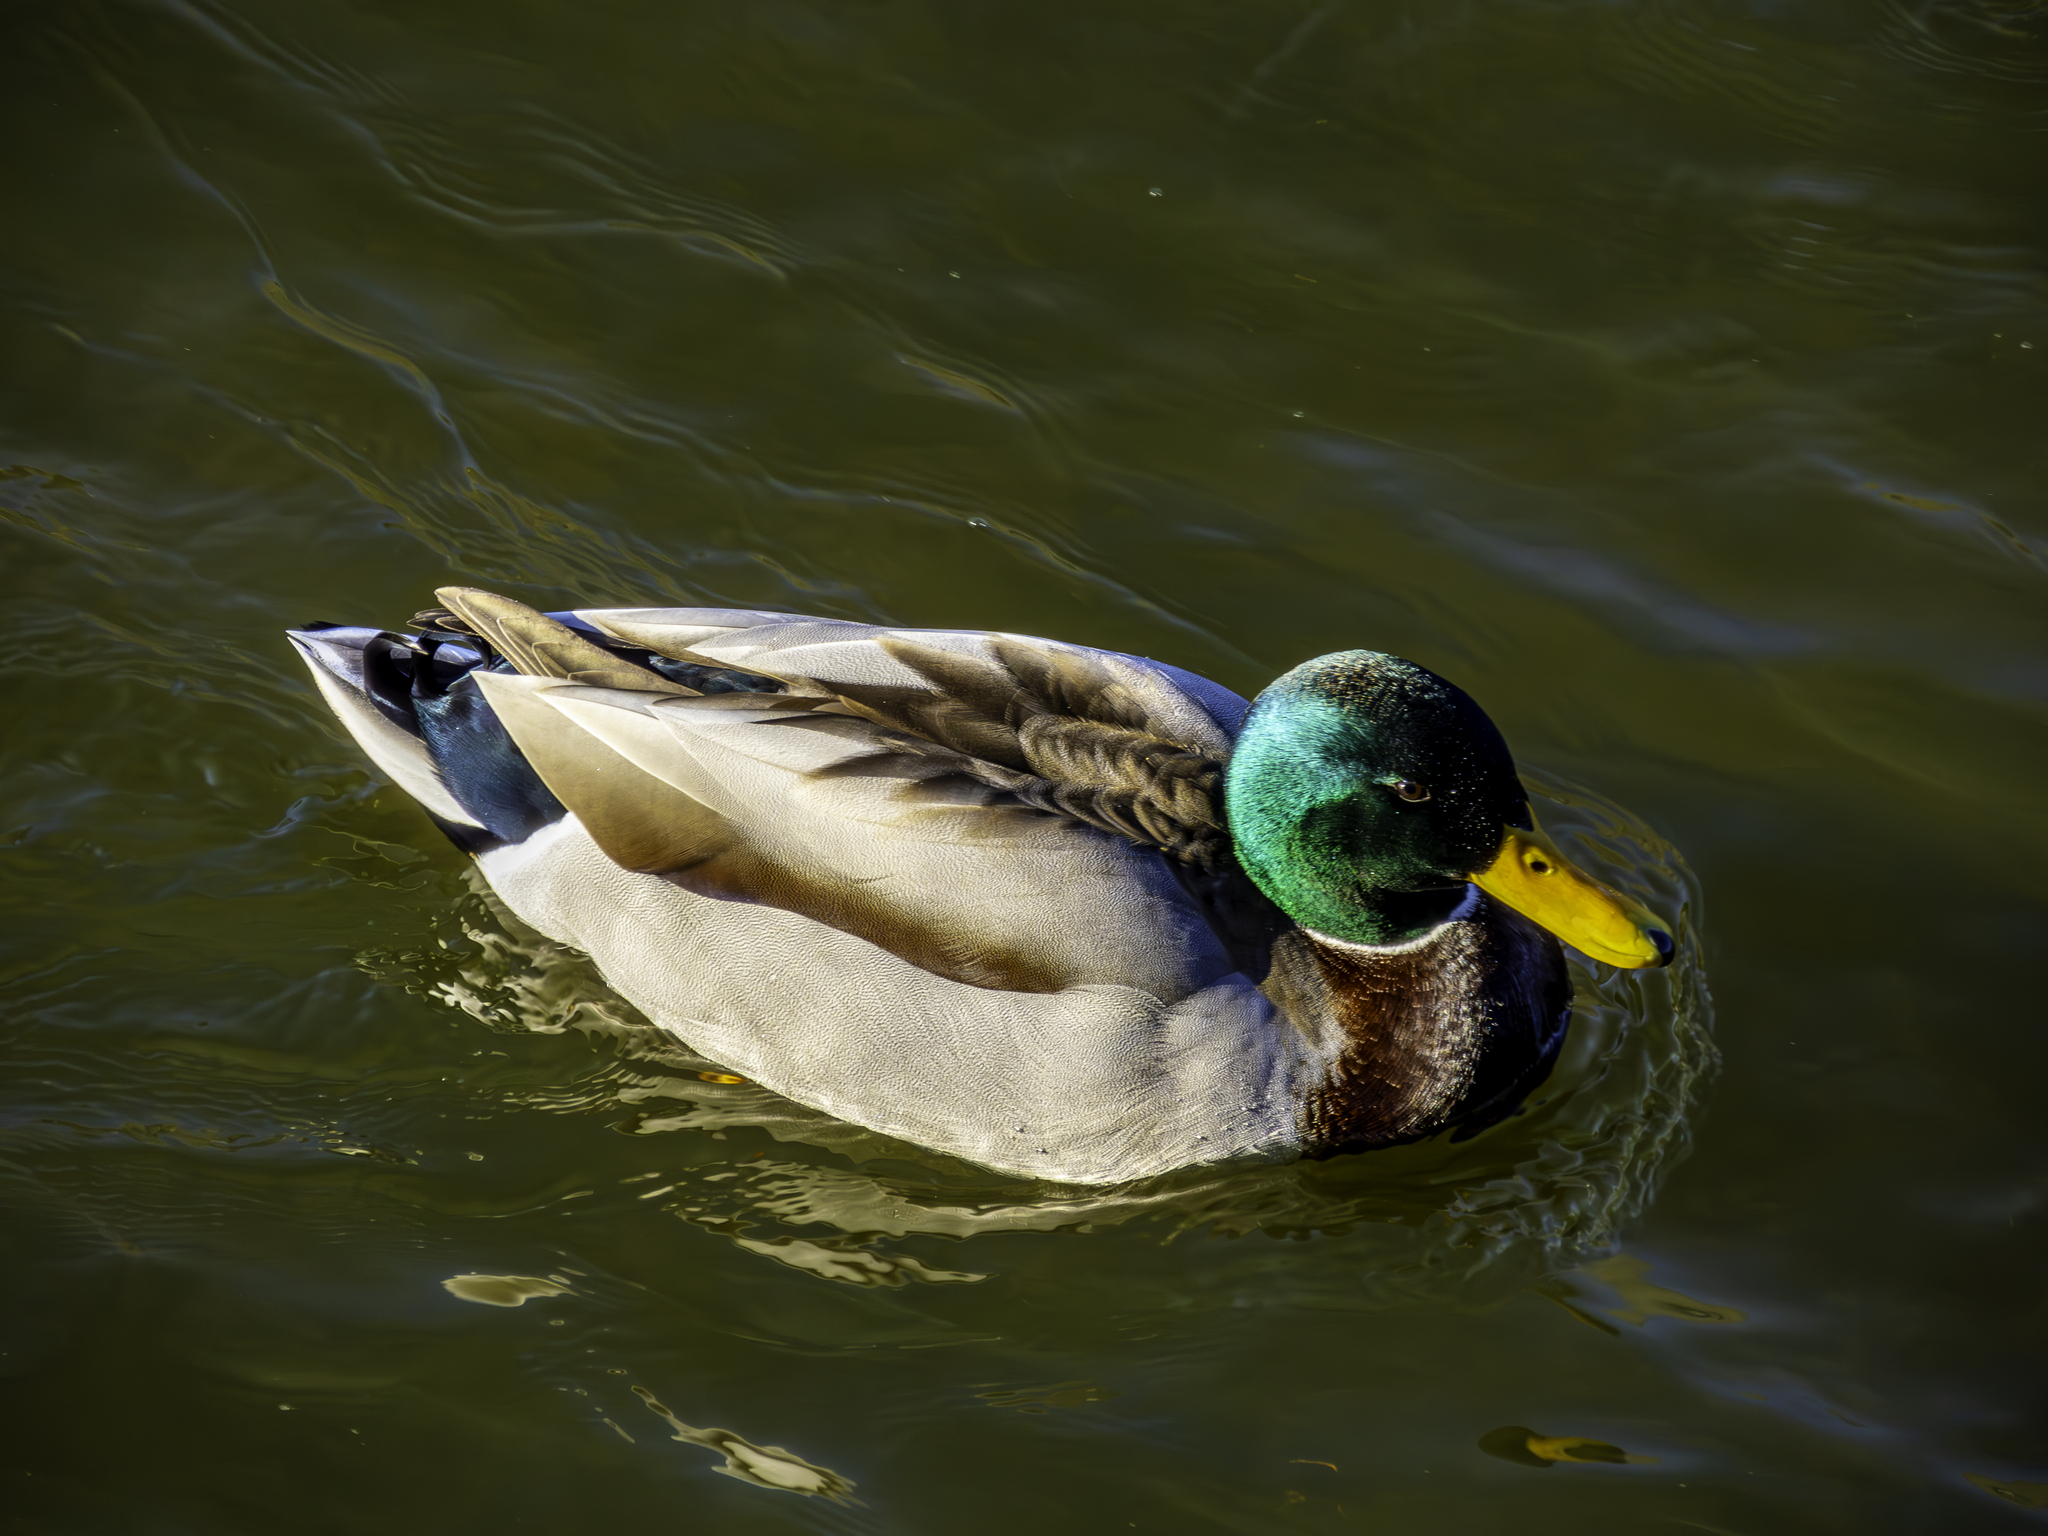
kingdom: Animalia
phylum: Chordata
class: Aves
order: Anseriformes
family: Anatidae
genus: Anas
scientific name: Anas platyrhynchos
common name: Mallard
